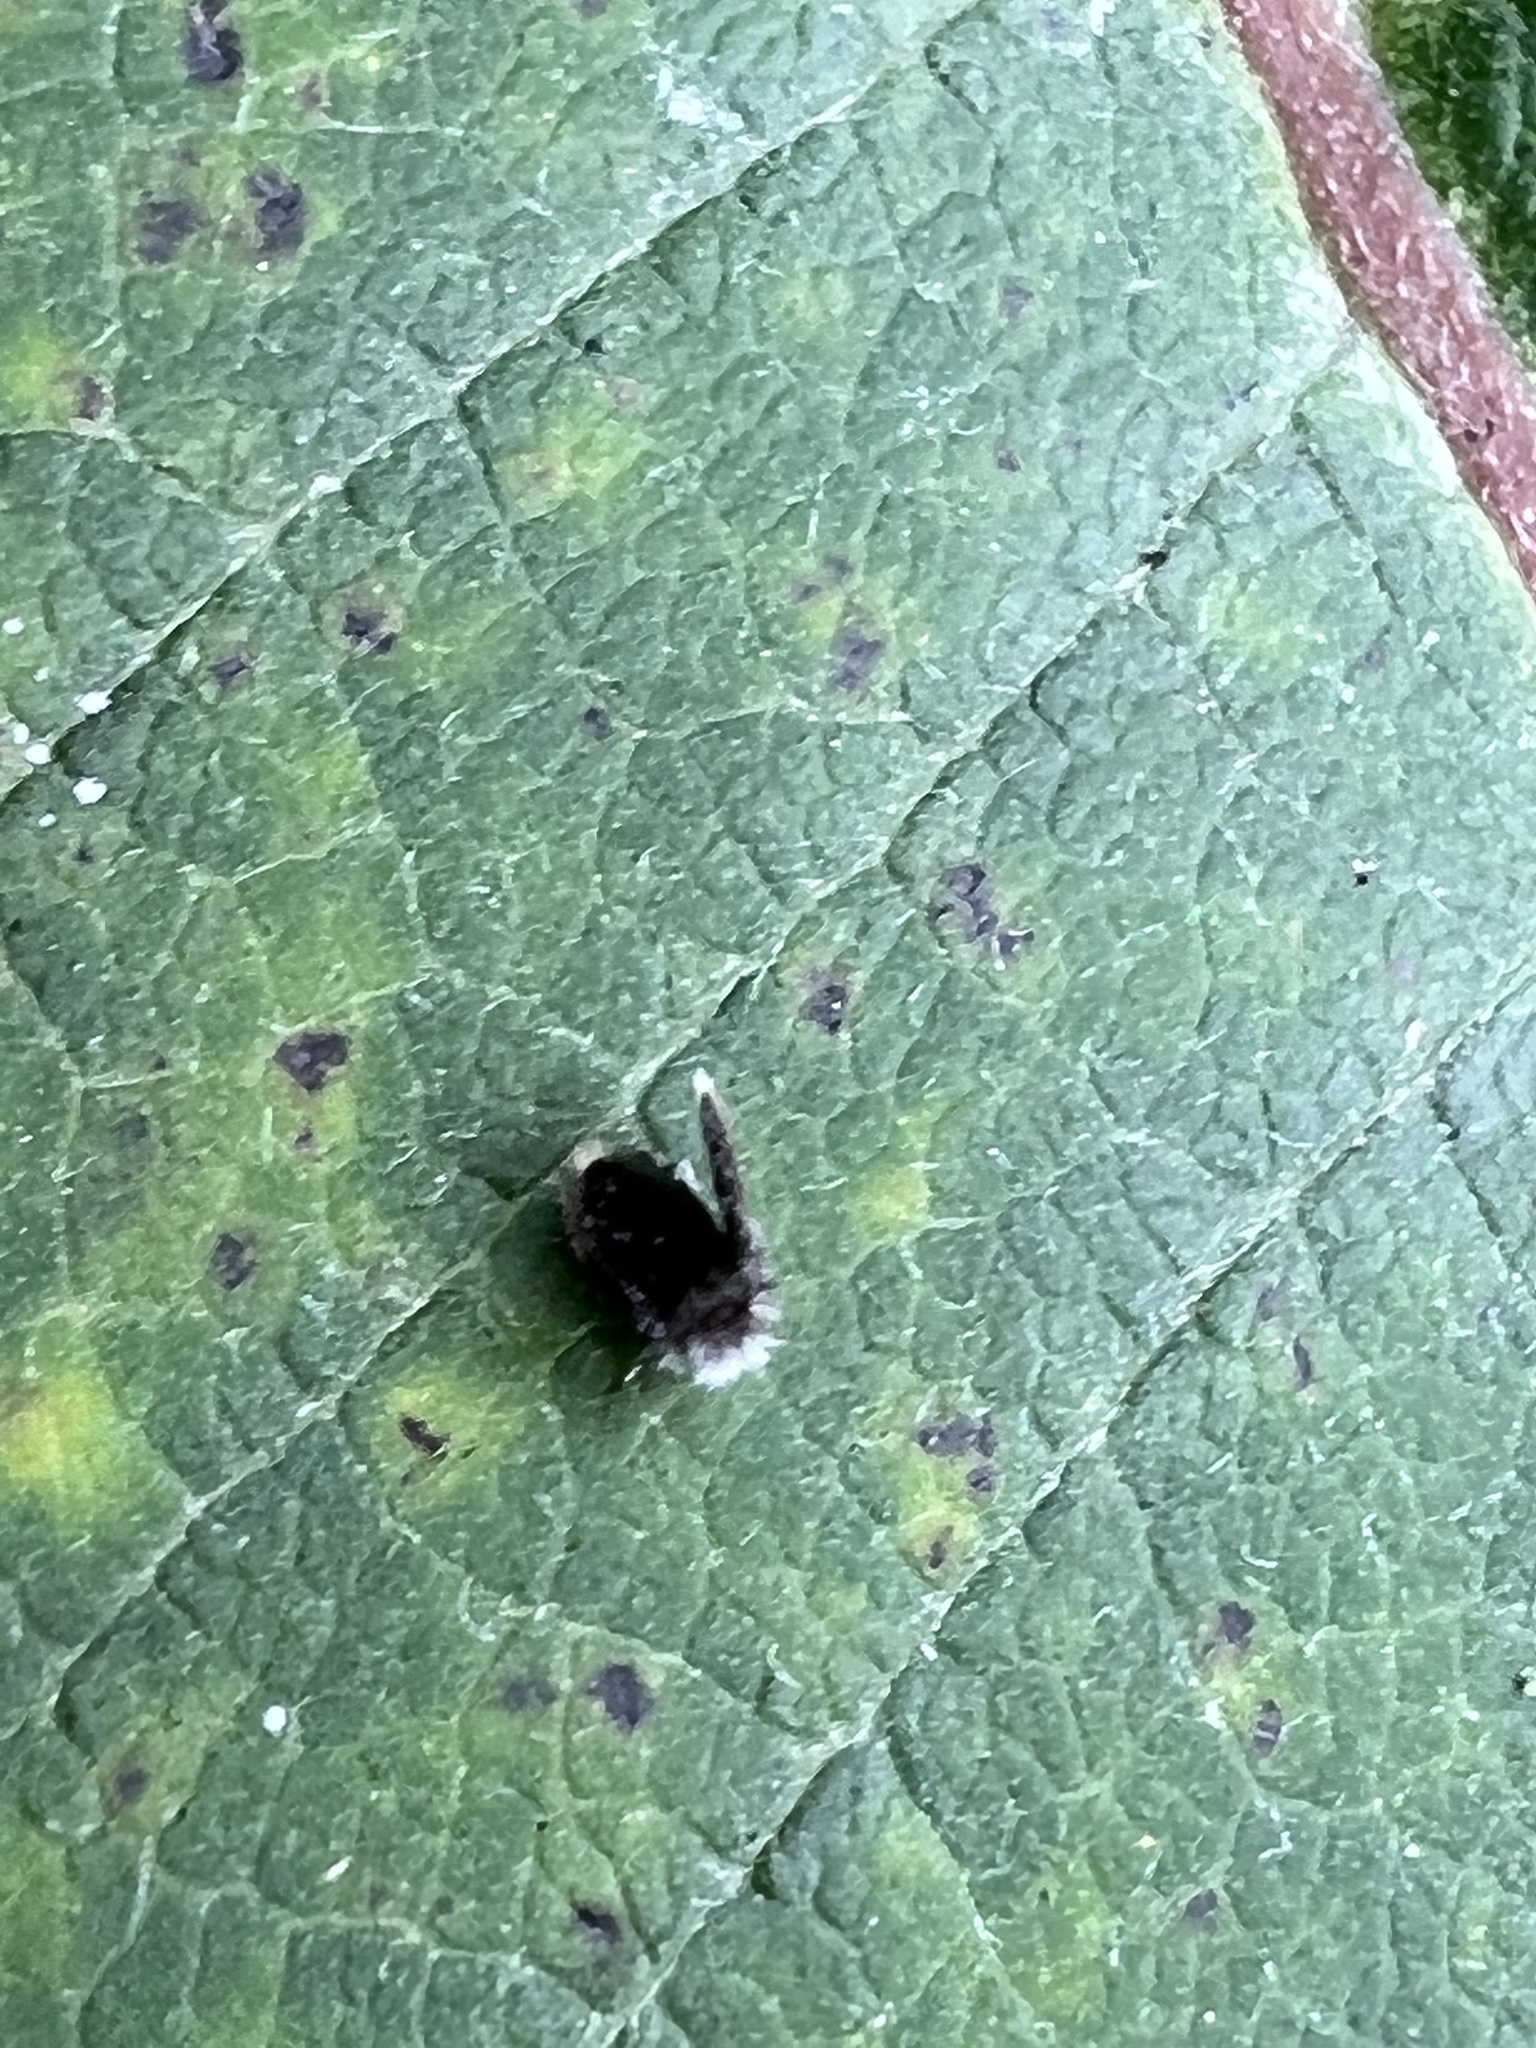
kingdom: Animalia
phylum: Arthropoda
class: Insecta
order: Diptera
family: Psychodidae
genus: Lepiseodina
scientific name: Lepiseodina
